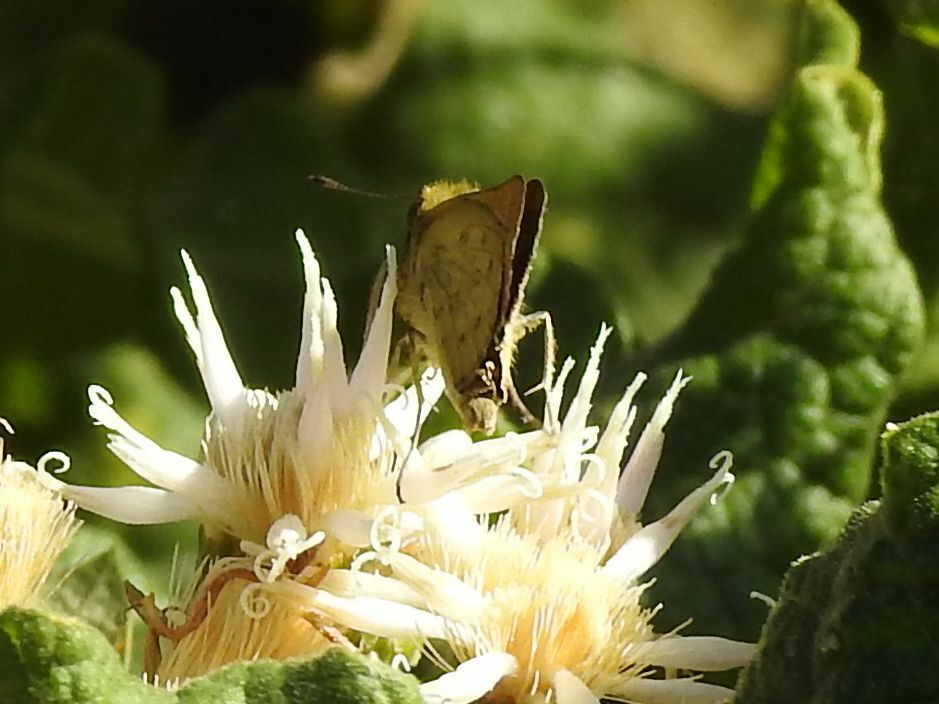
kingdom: Animalia
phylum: Arthropoda
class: Insecta
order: Hymenoptera
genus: Afrogenes
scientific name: Afrogenes
